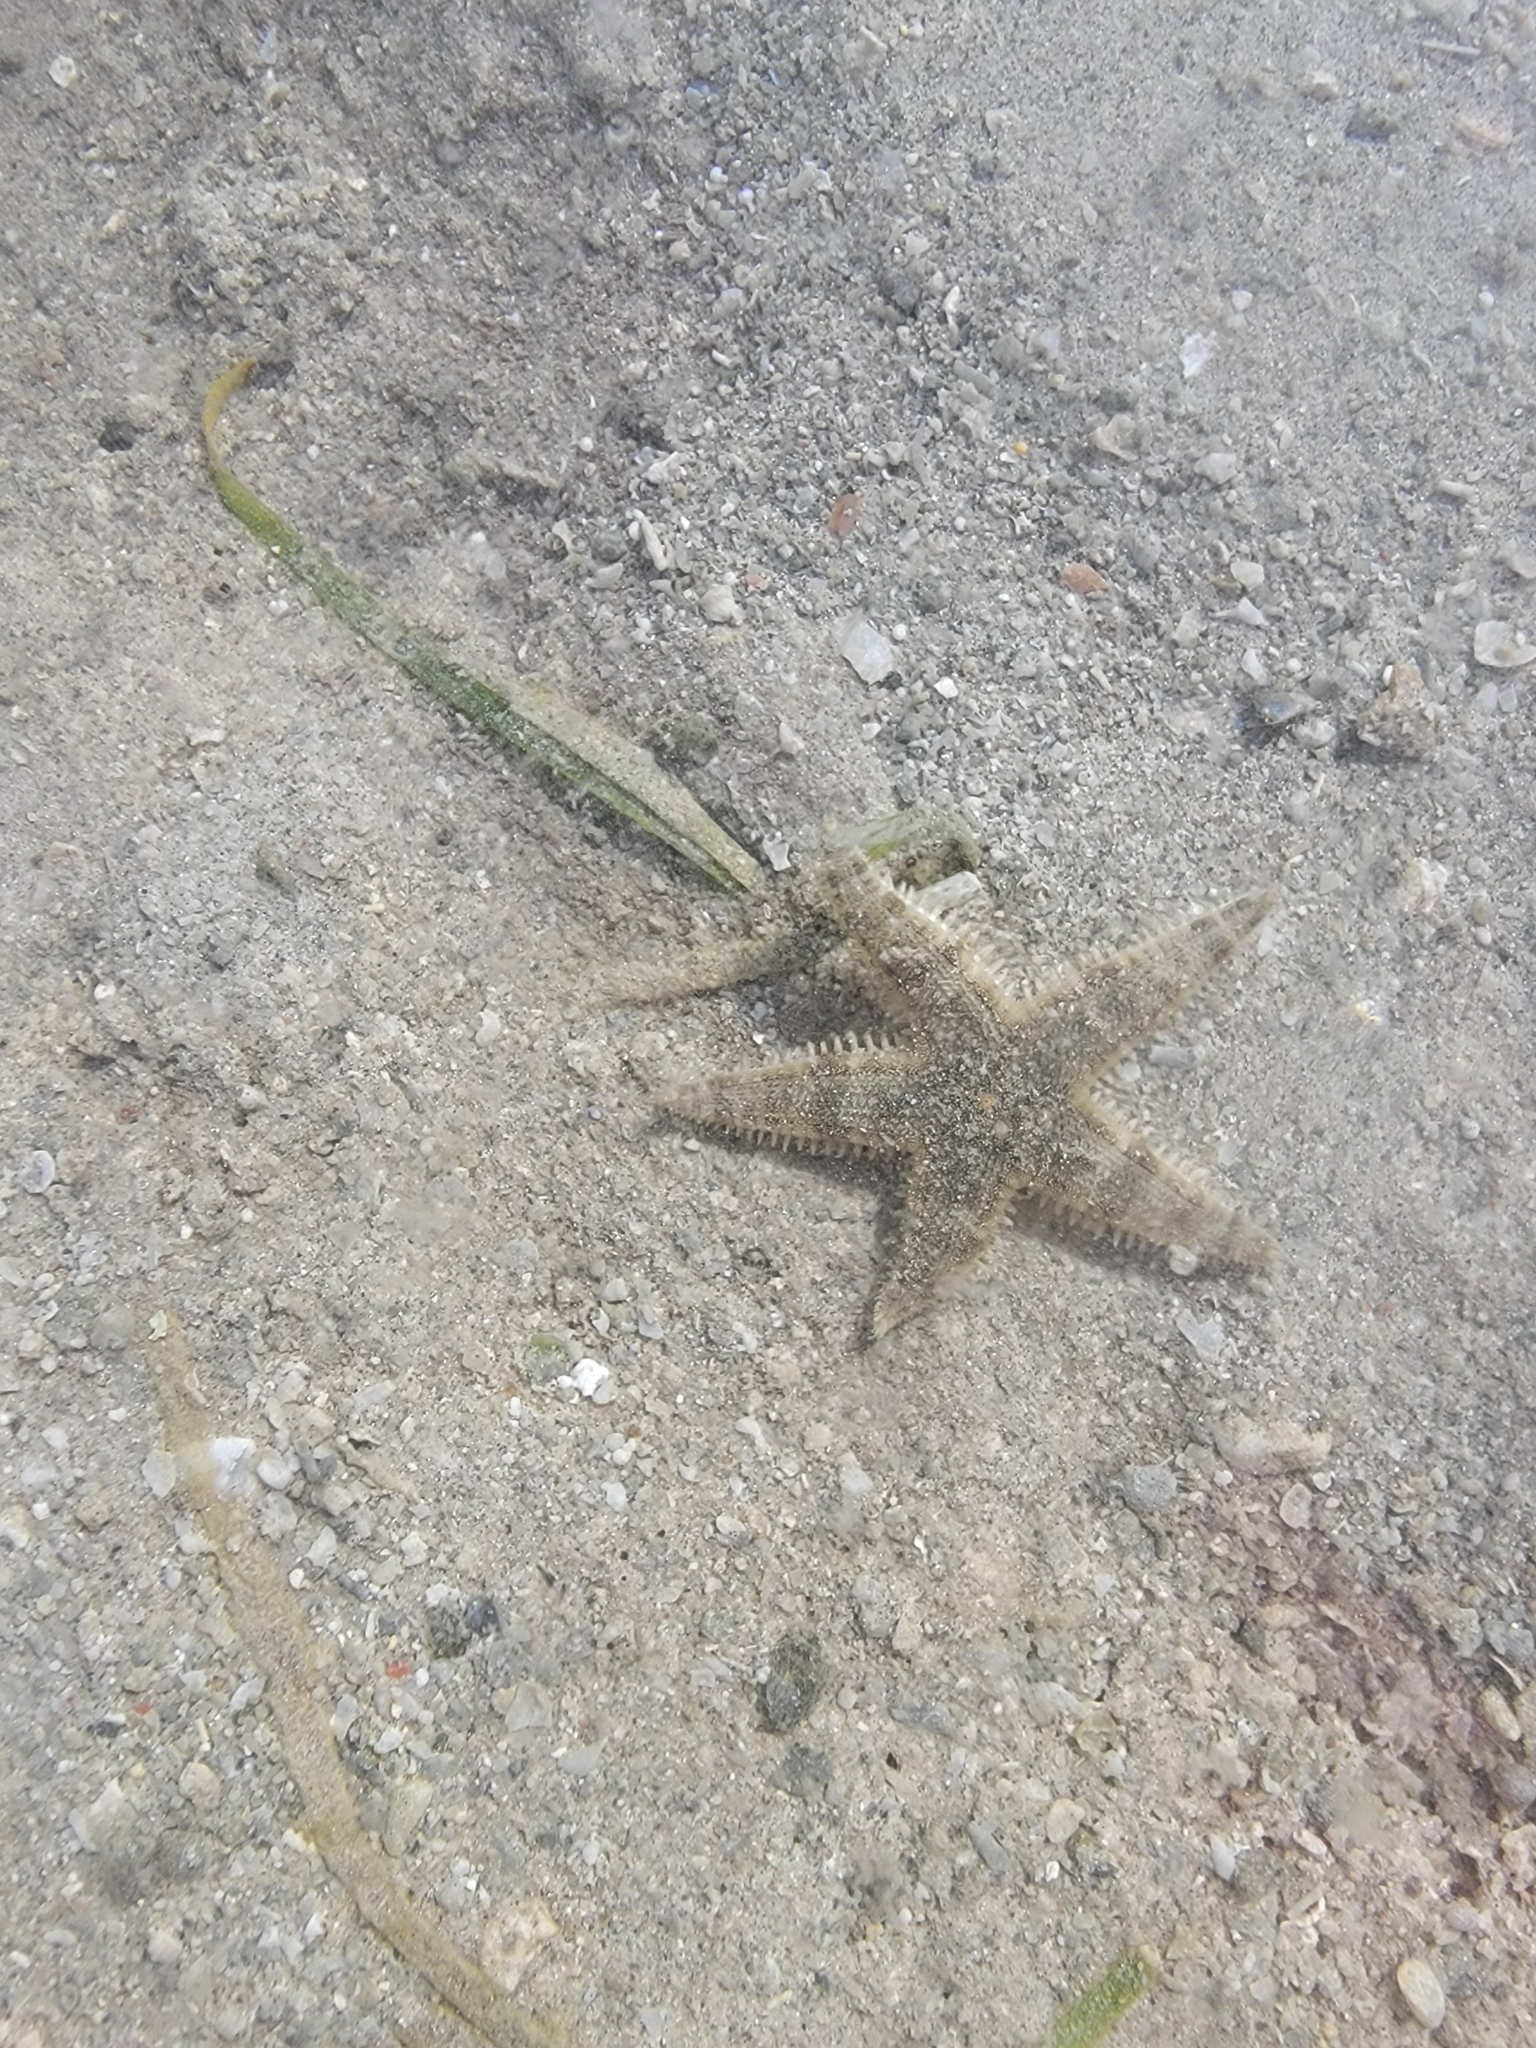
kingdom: Animalia
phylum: Echinodermata
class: Asteroidea
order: Valvatida
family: Archasteridae
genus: Archaster
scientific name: Archaster typicus
